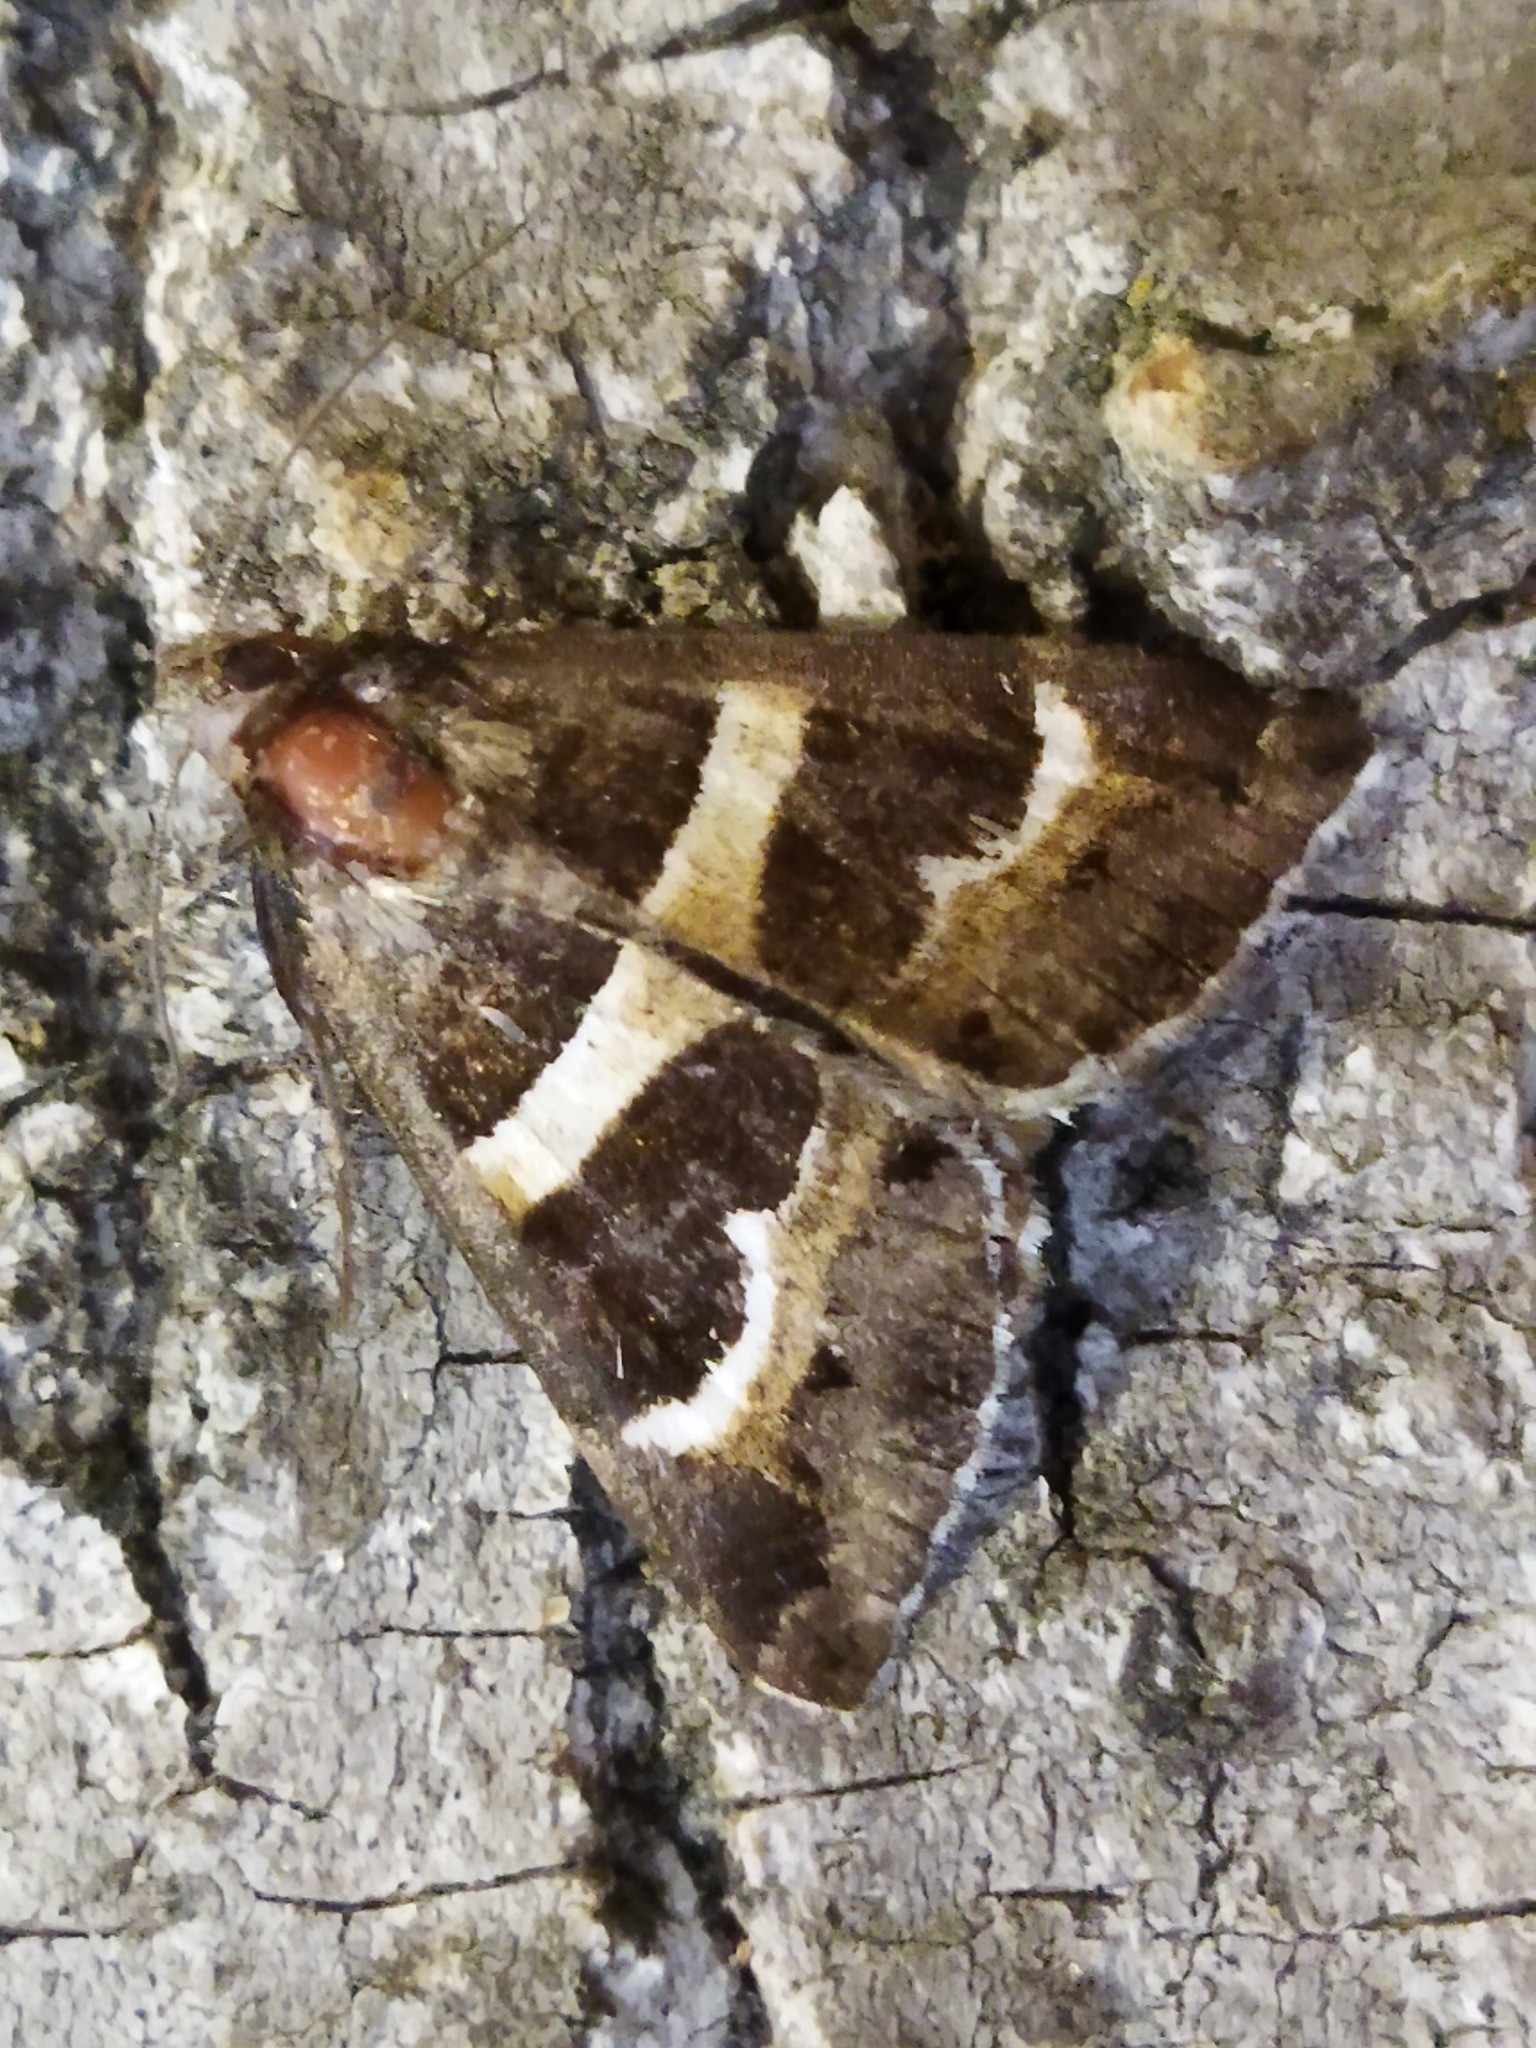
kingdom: Animalia
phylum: Arthropoda
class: Insecta
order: Lepidoptera
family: Erebidae
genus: Grammodes
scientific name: Grammodes stolida
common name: Geometrician
